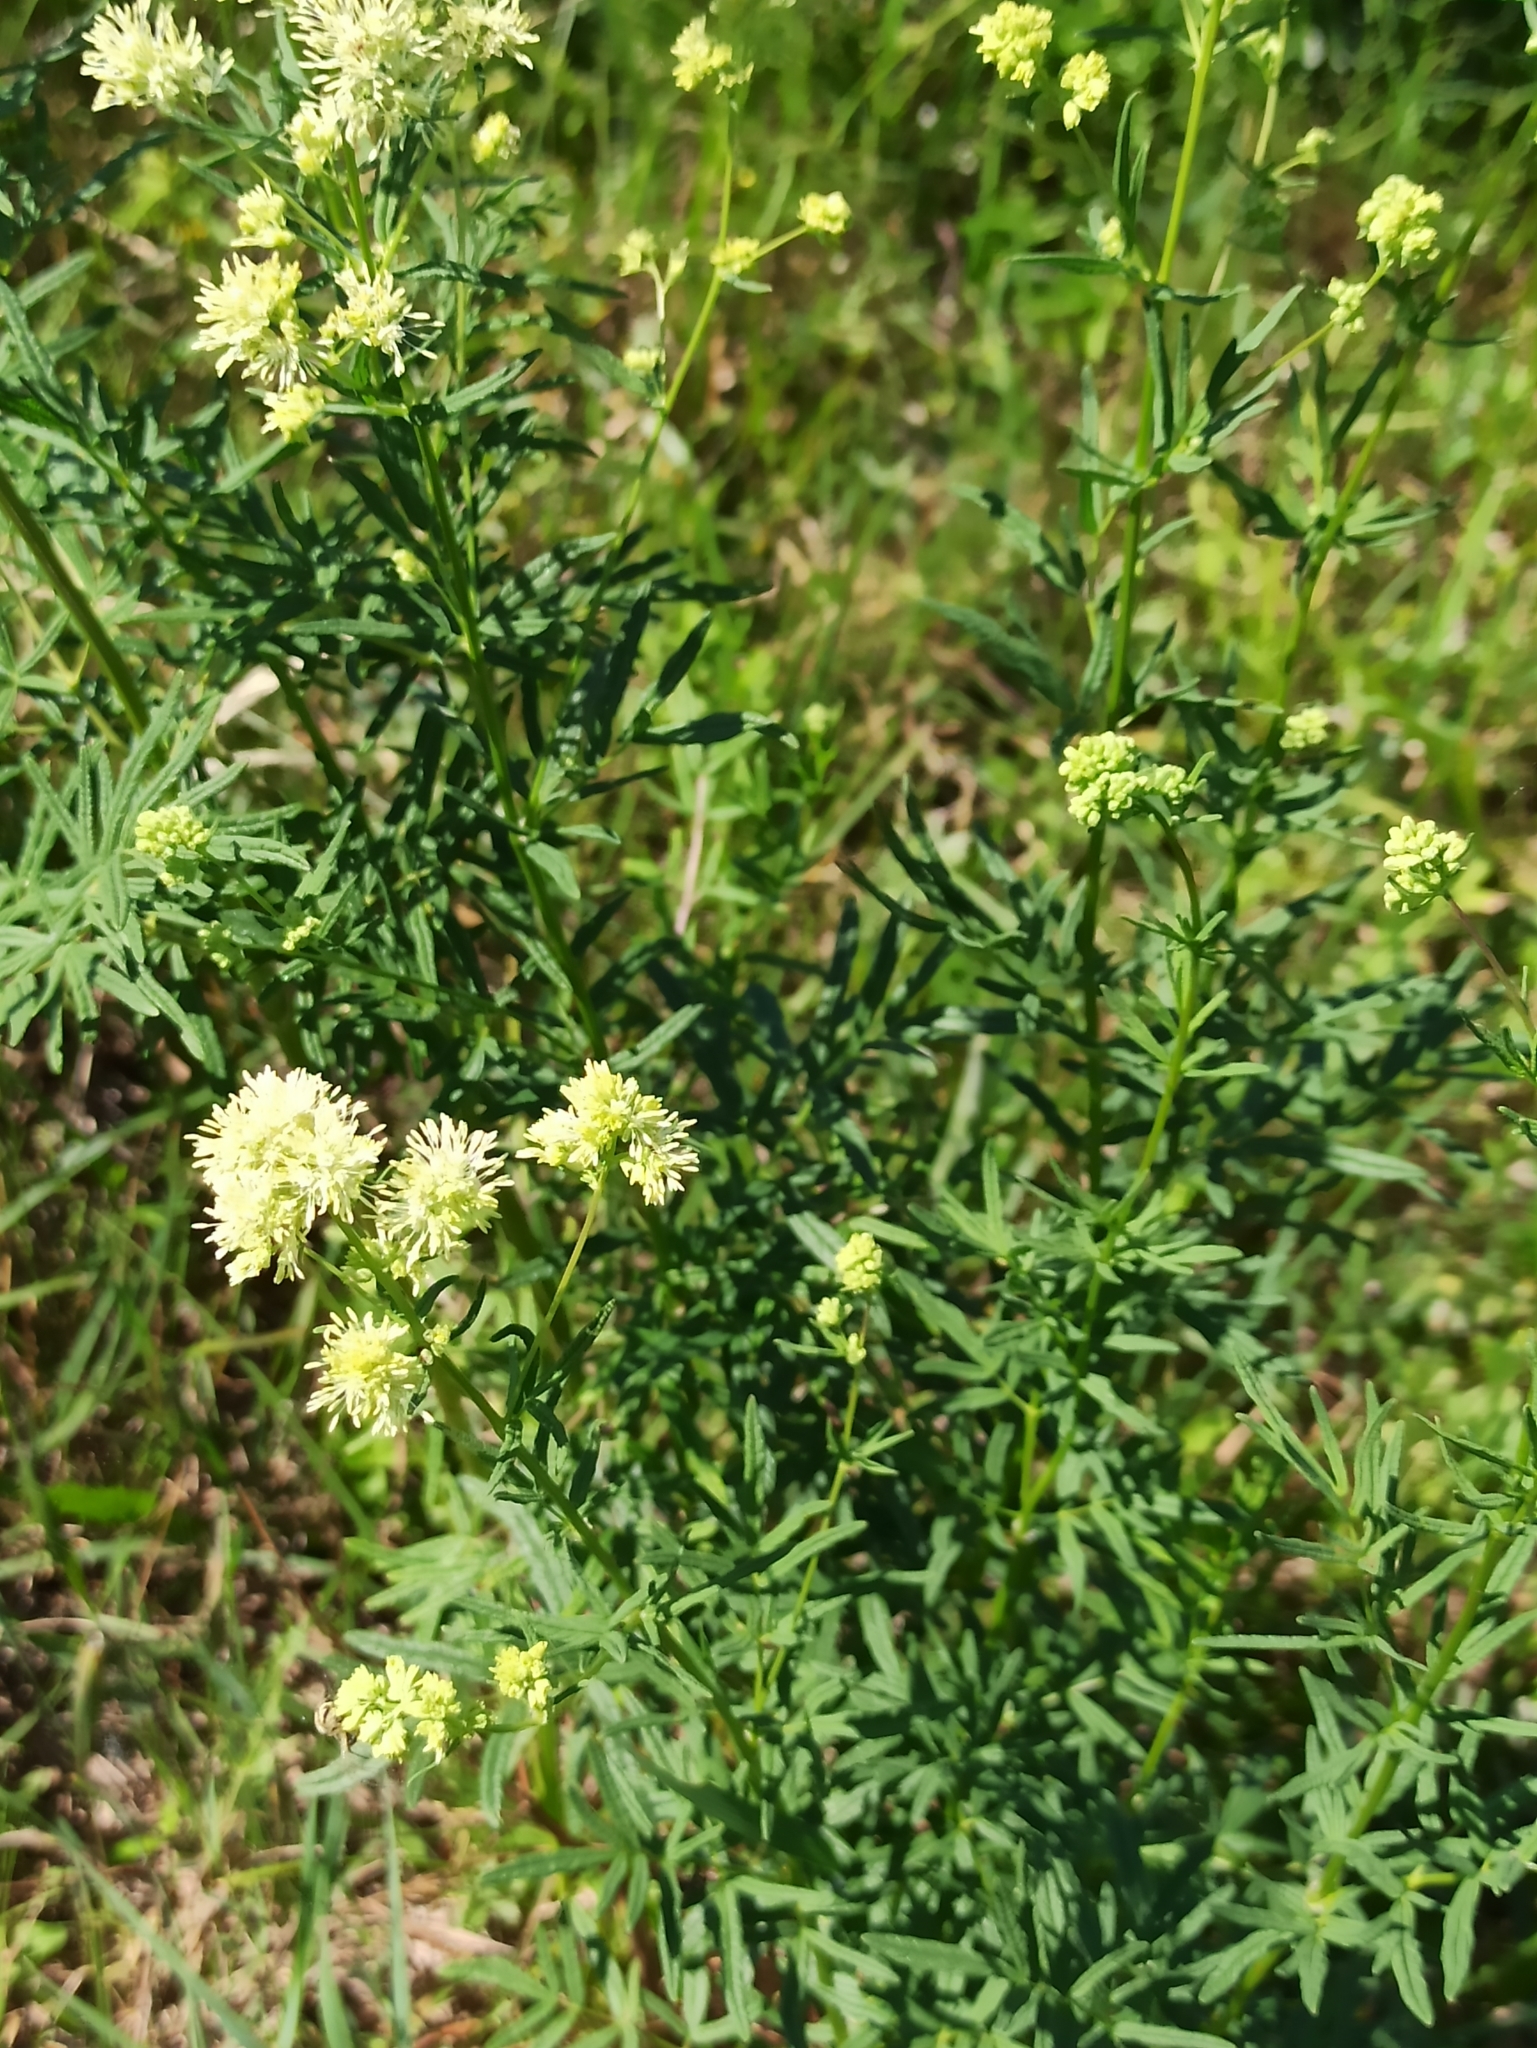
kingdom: Plantae
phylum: Tracheophyta
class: Magnoliopsida
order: Ranunculales
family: Ranunculaceae
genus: Thalictrum
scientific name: Thalictrum lucidum
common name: Shining meadow-rue
